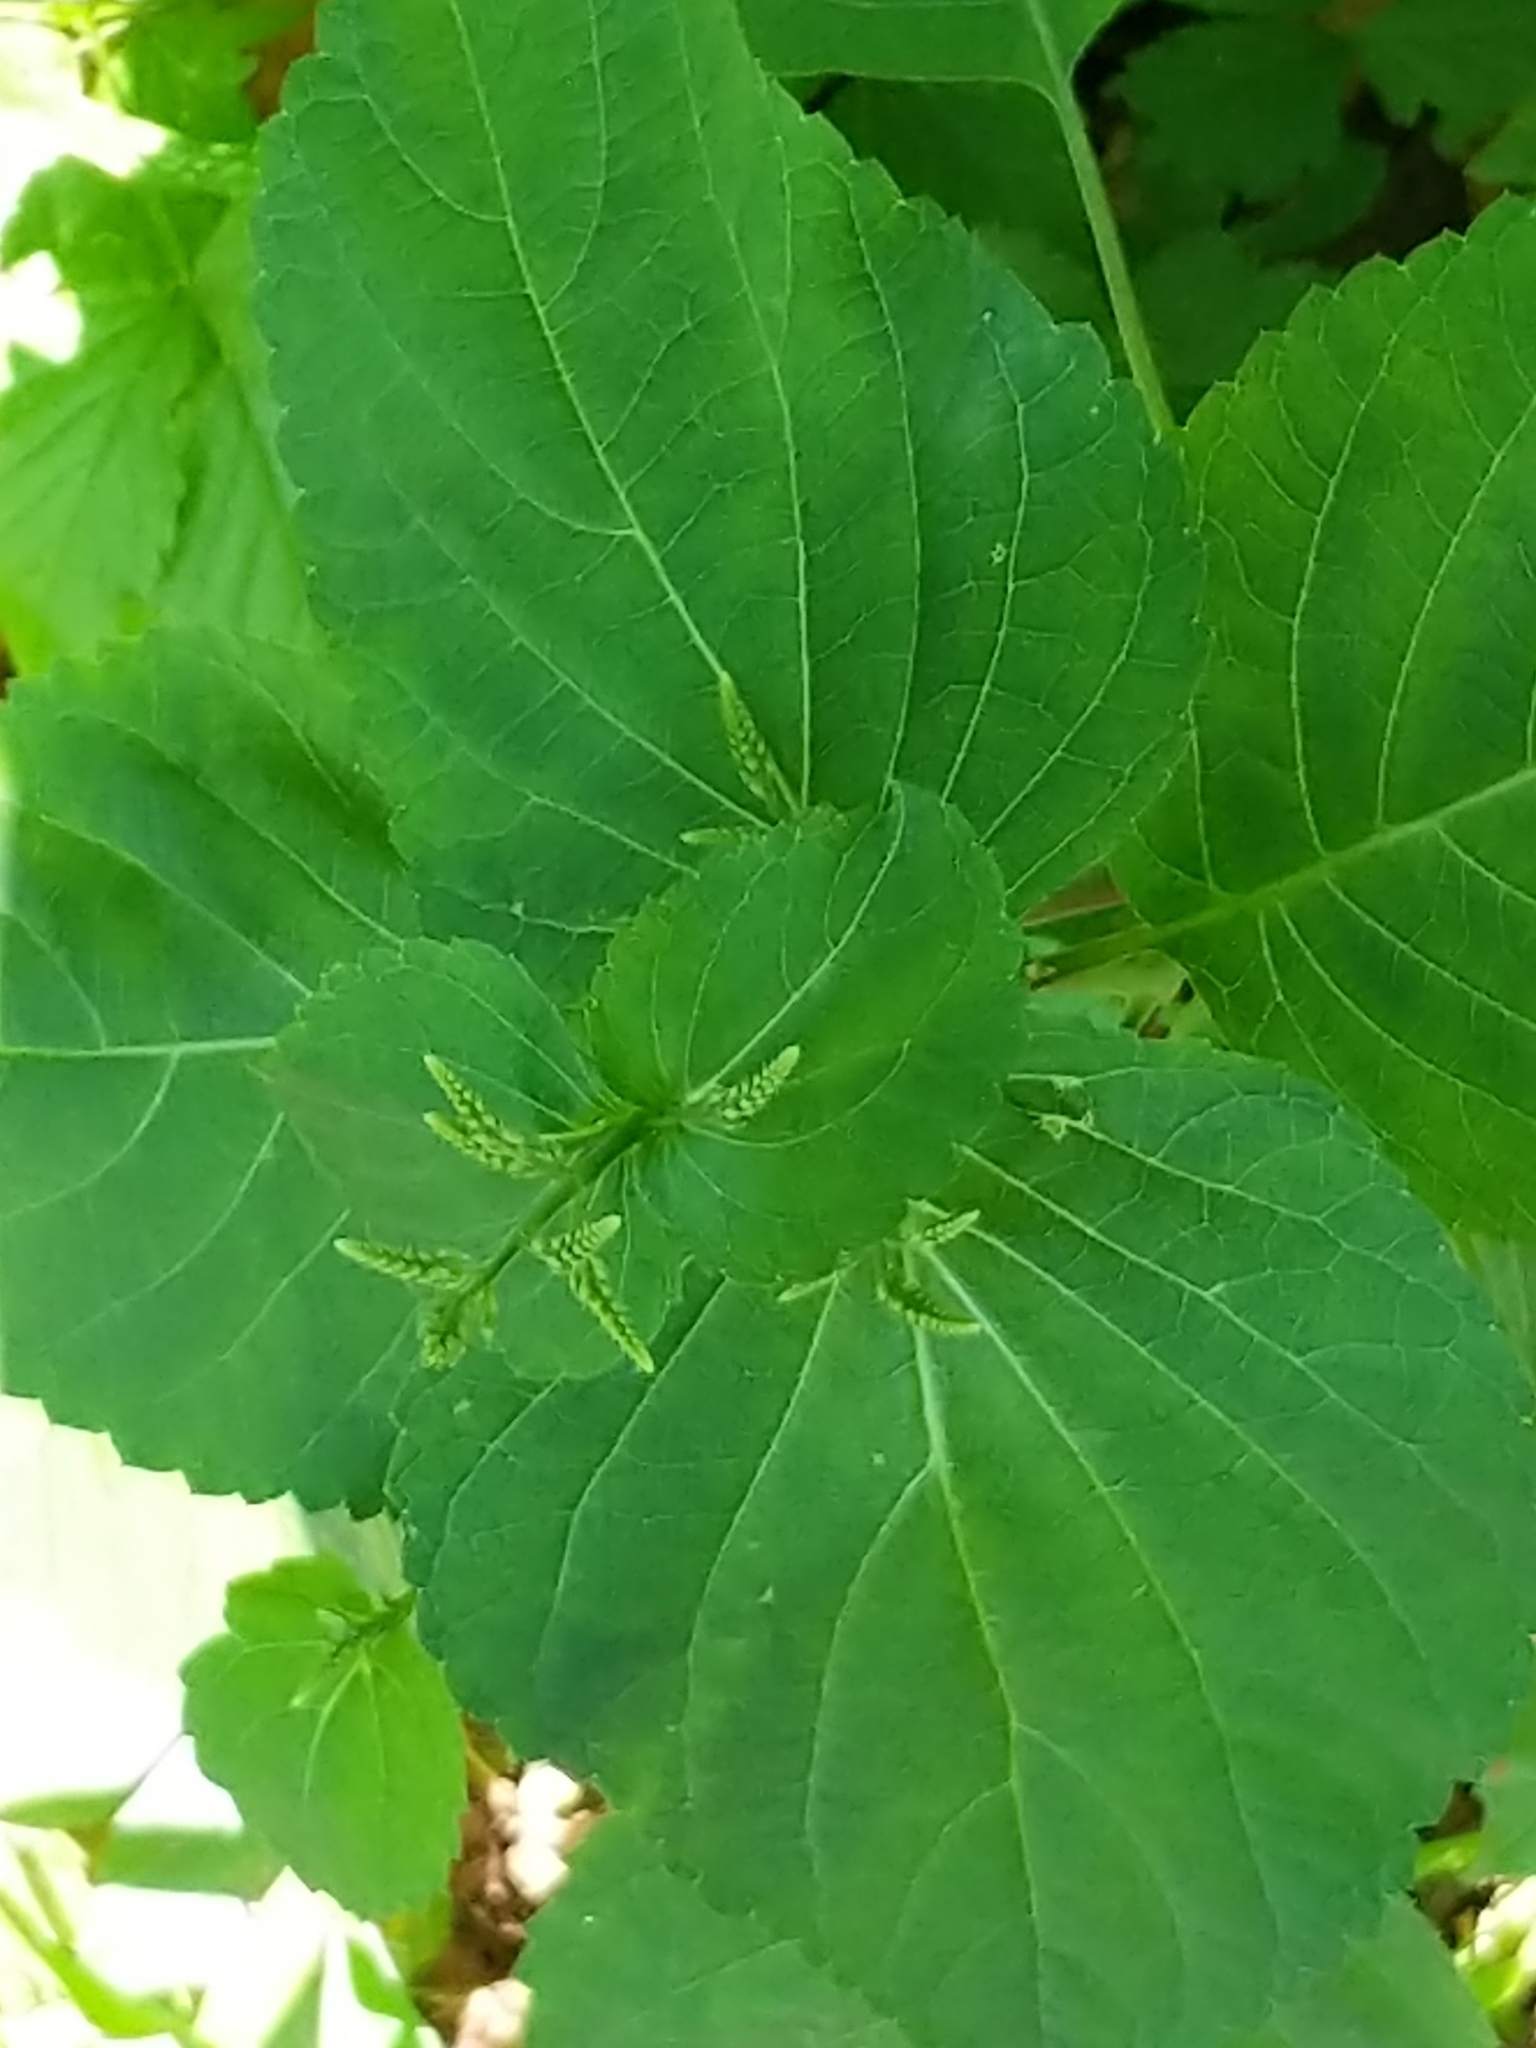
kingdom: Plantae
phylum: Tracheophyta
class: Magnoliopsida
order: Lamiales
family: Lamiaceae
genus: Collinsonia
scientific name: Collinsonia canadensis
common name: Northern horsebalm
